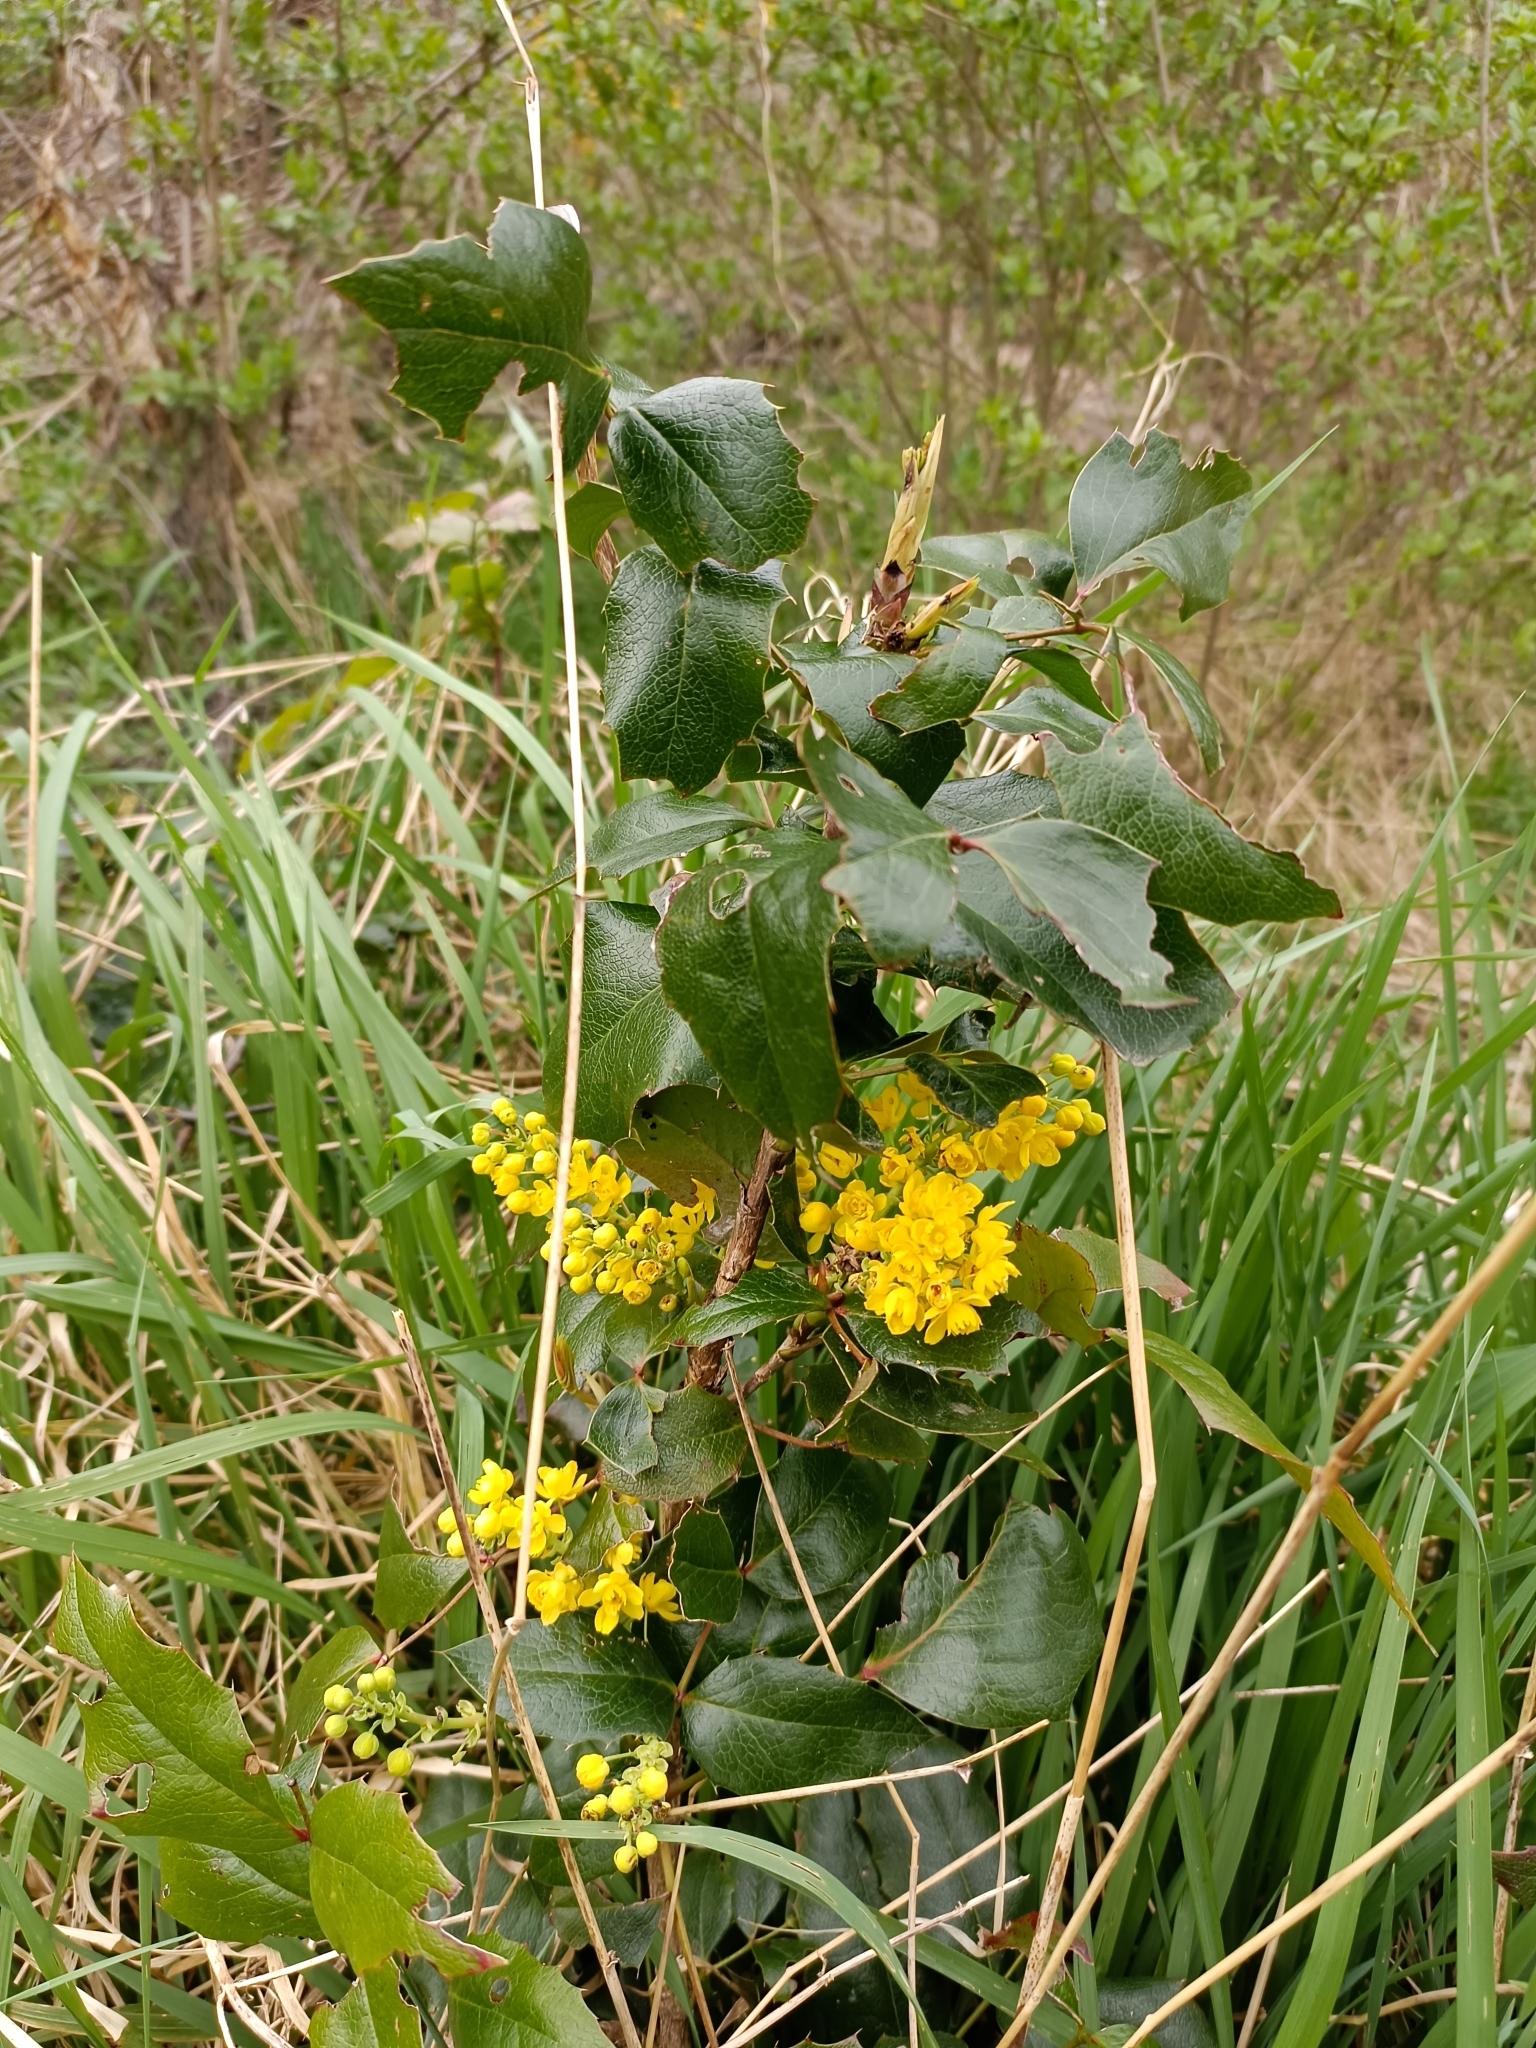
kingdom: Plantae
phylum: Tracheophyta
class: Magnoliopsida
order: Ranunculales
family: Berberidaceae
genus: Mahonia
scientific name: Mahonia aquifolium
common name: Oregon-grape
